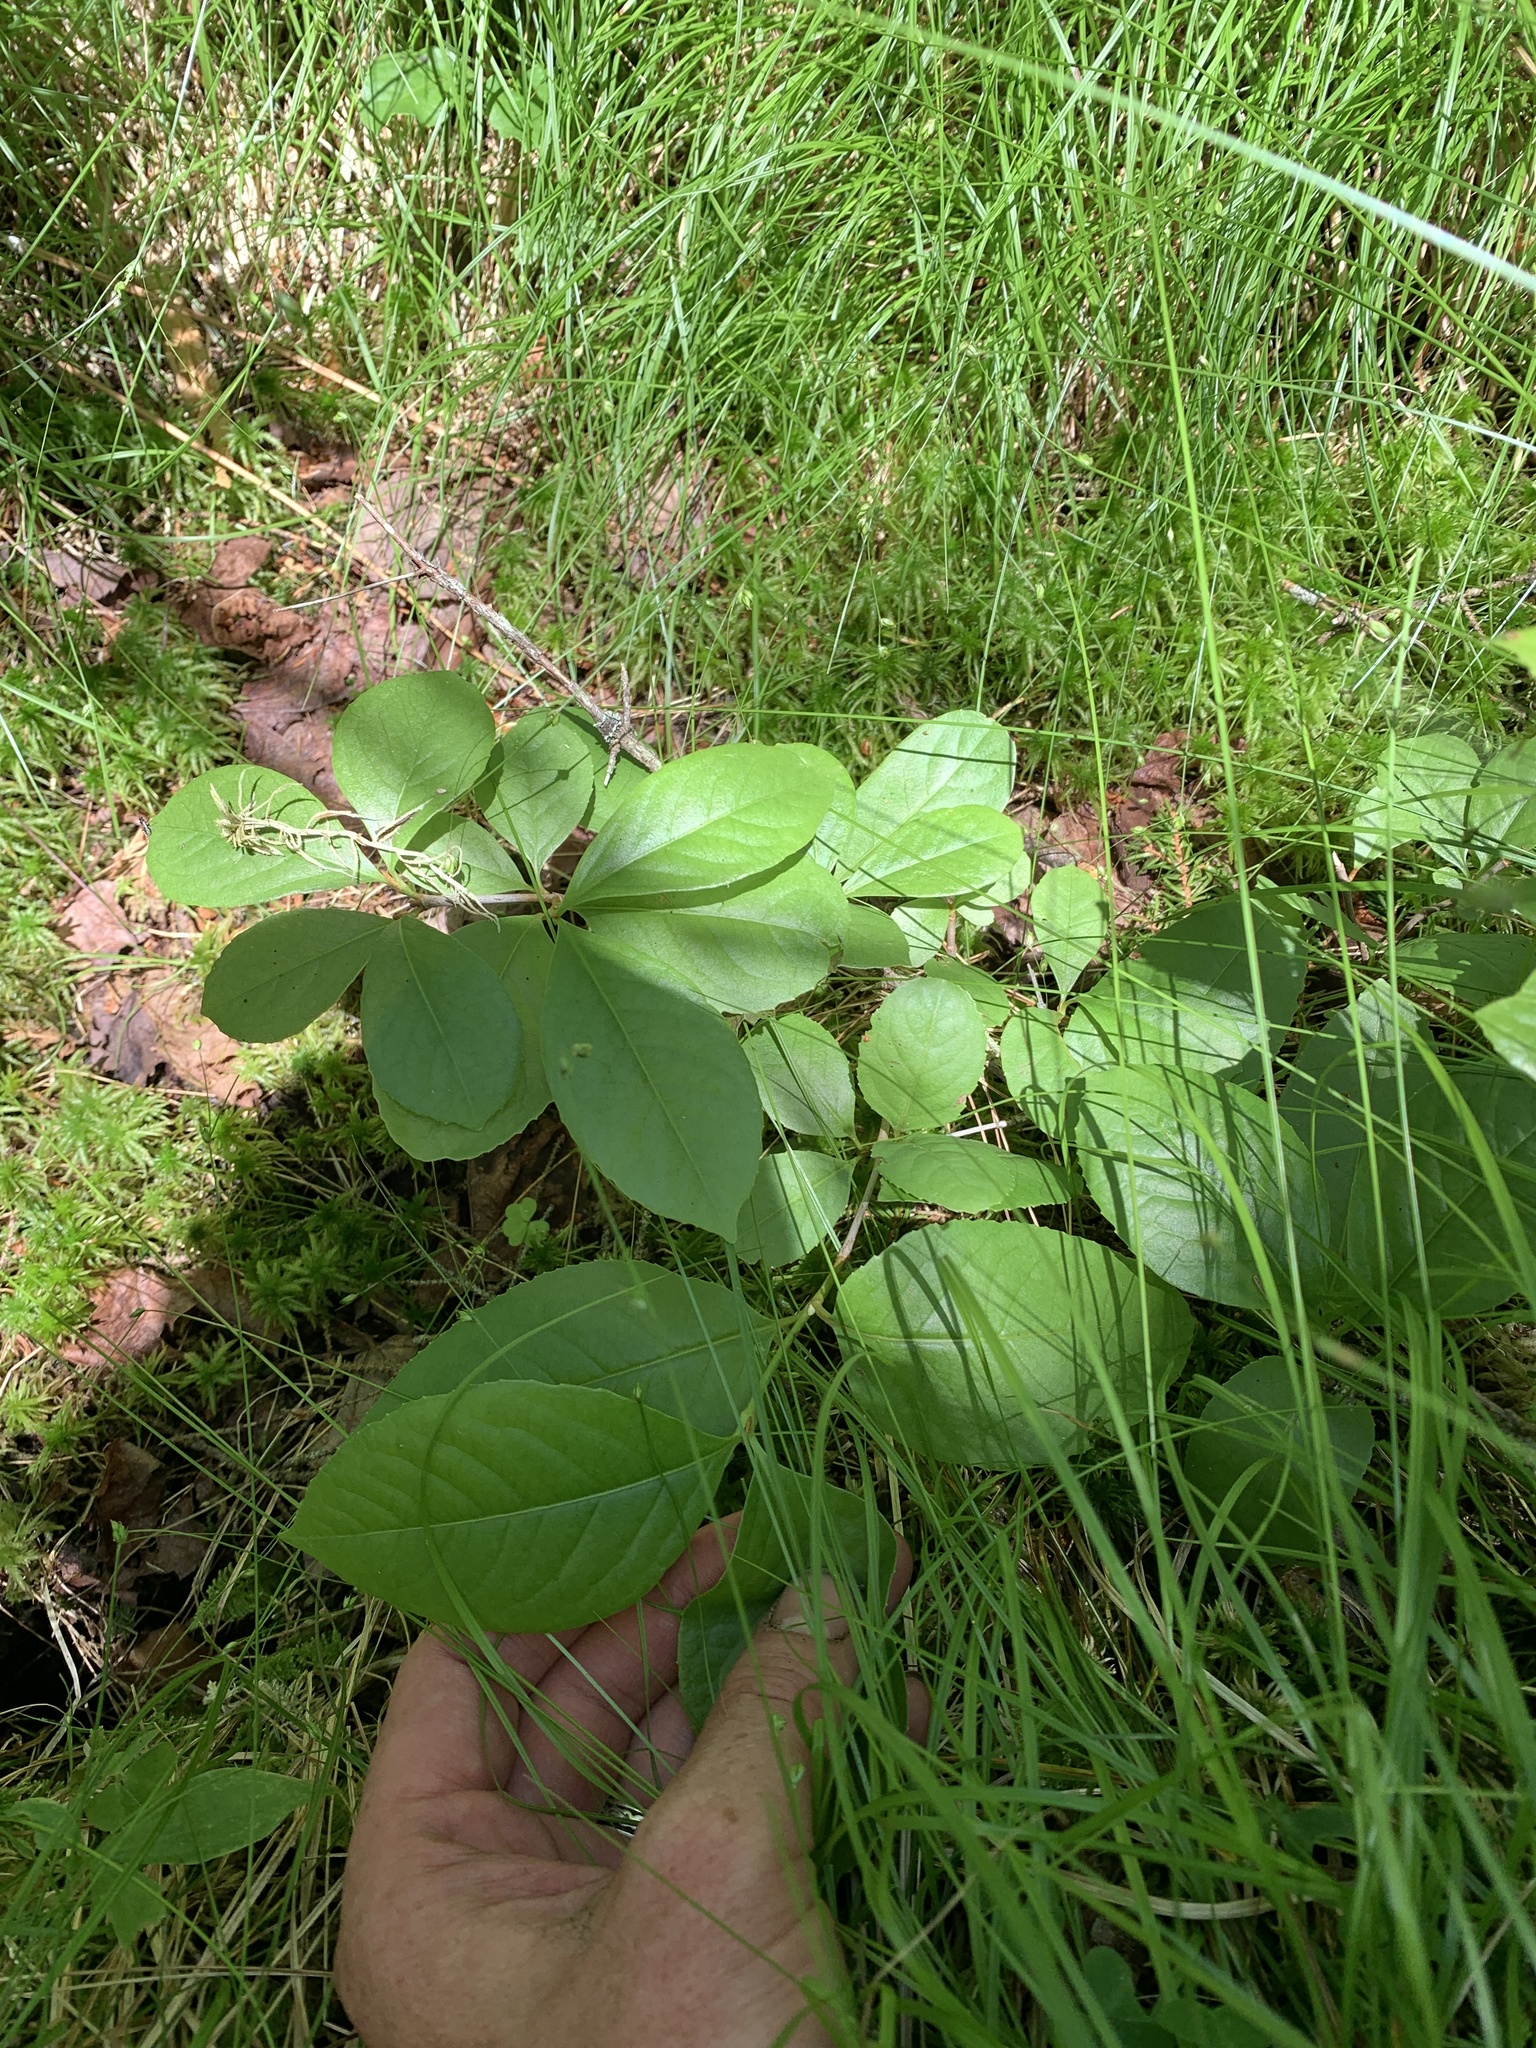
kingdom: Plantae
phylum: Tracheophyta
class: Magnoliopsida
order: Dipsacales
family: Viburnaceae
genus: Viburnum
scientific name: Viburnum cassinoides
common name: Swamp haw
